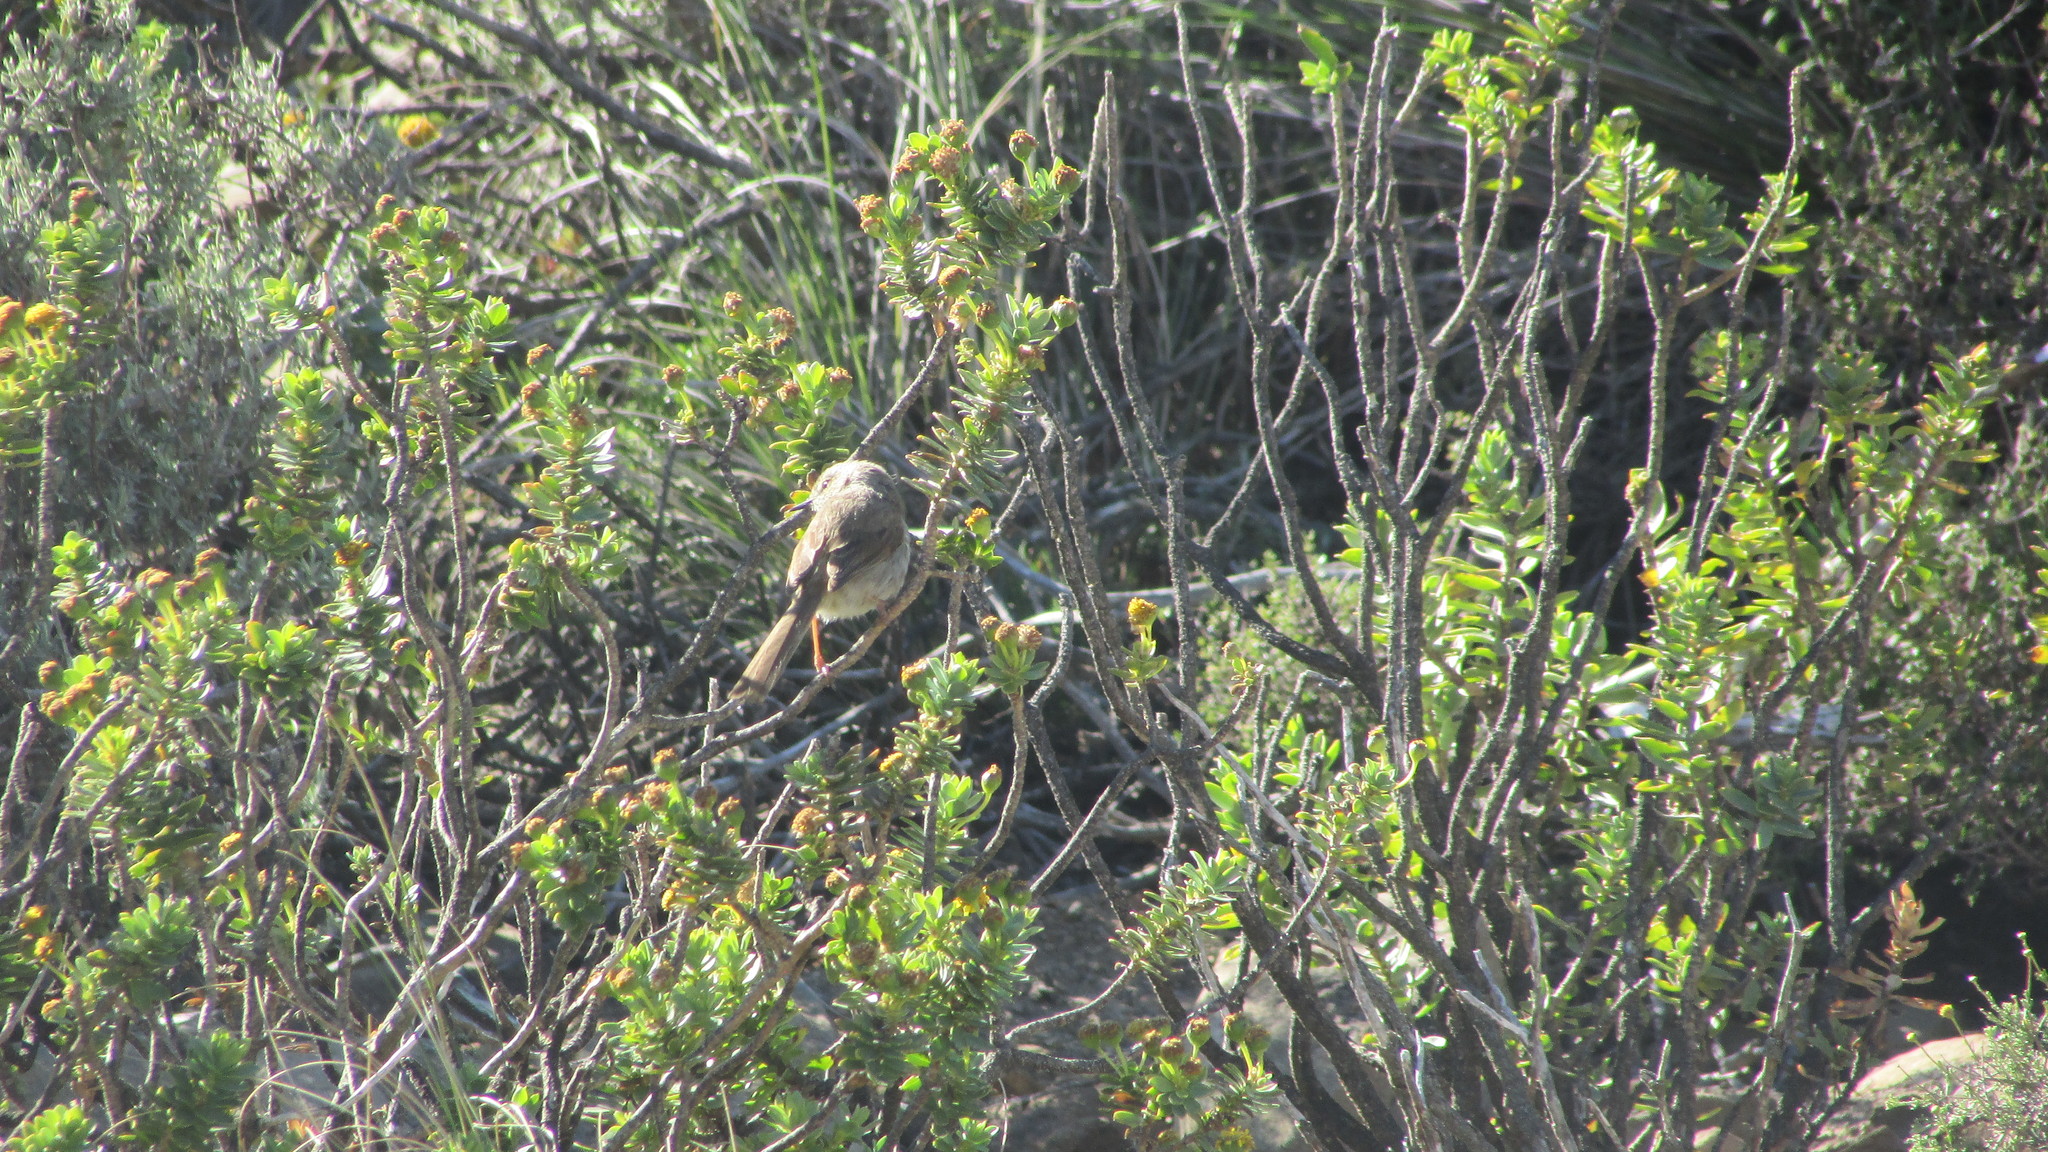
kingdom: Animalia
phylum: Chordata
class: Aves
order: Passeriformes
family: Cisticolidae
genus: Prinia
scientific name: Prinia maculosa
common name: Karoo prinia
